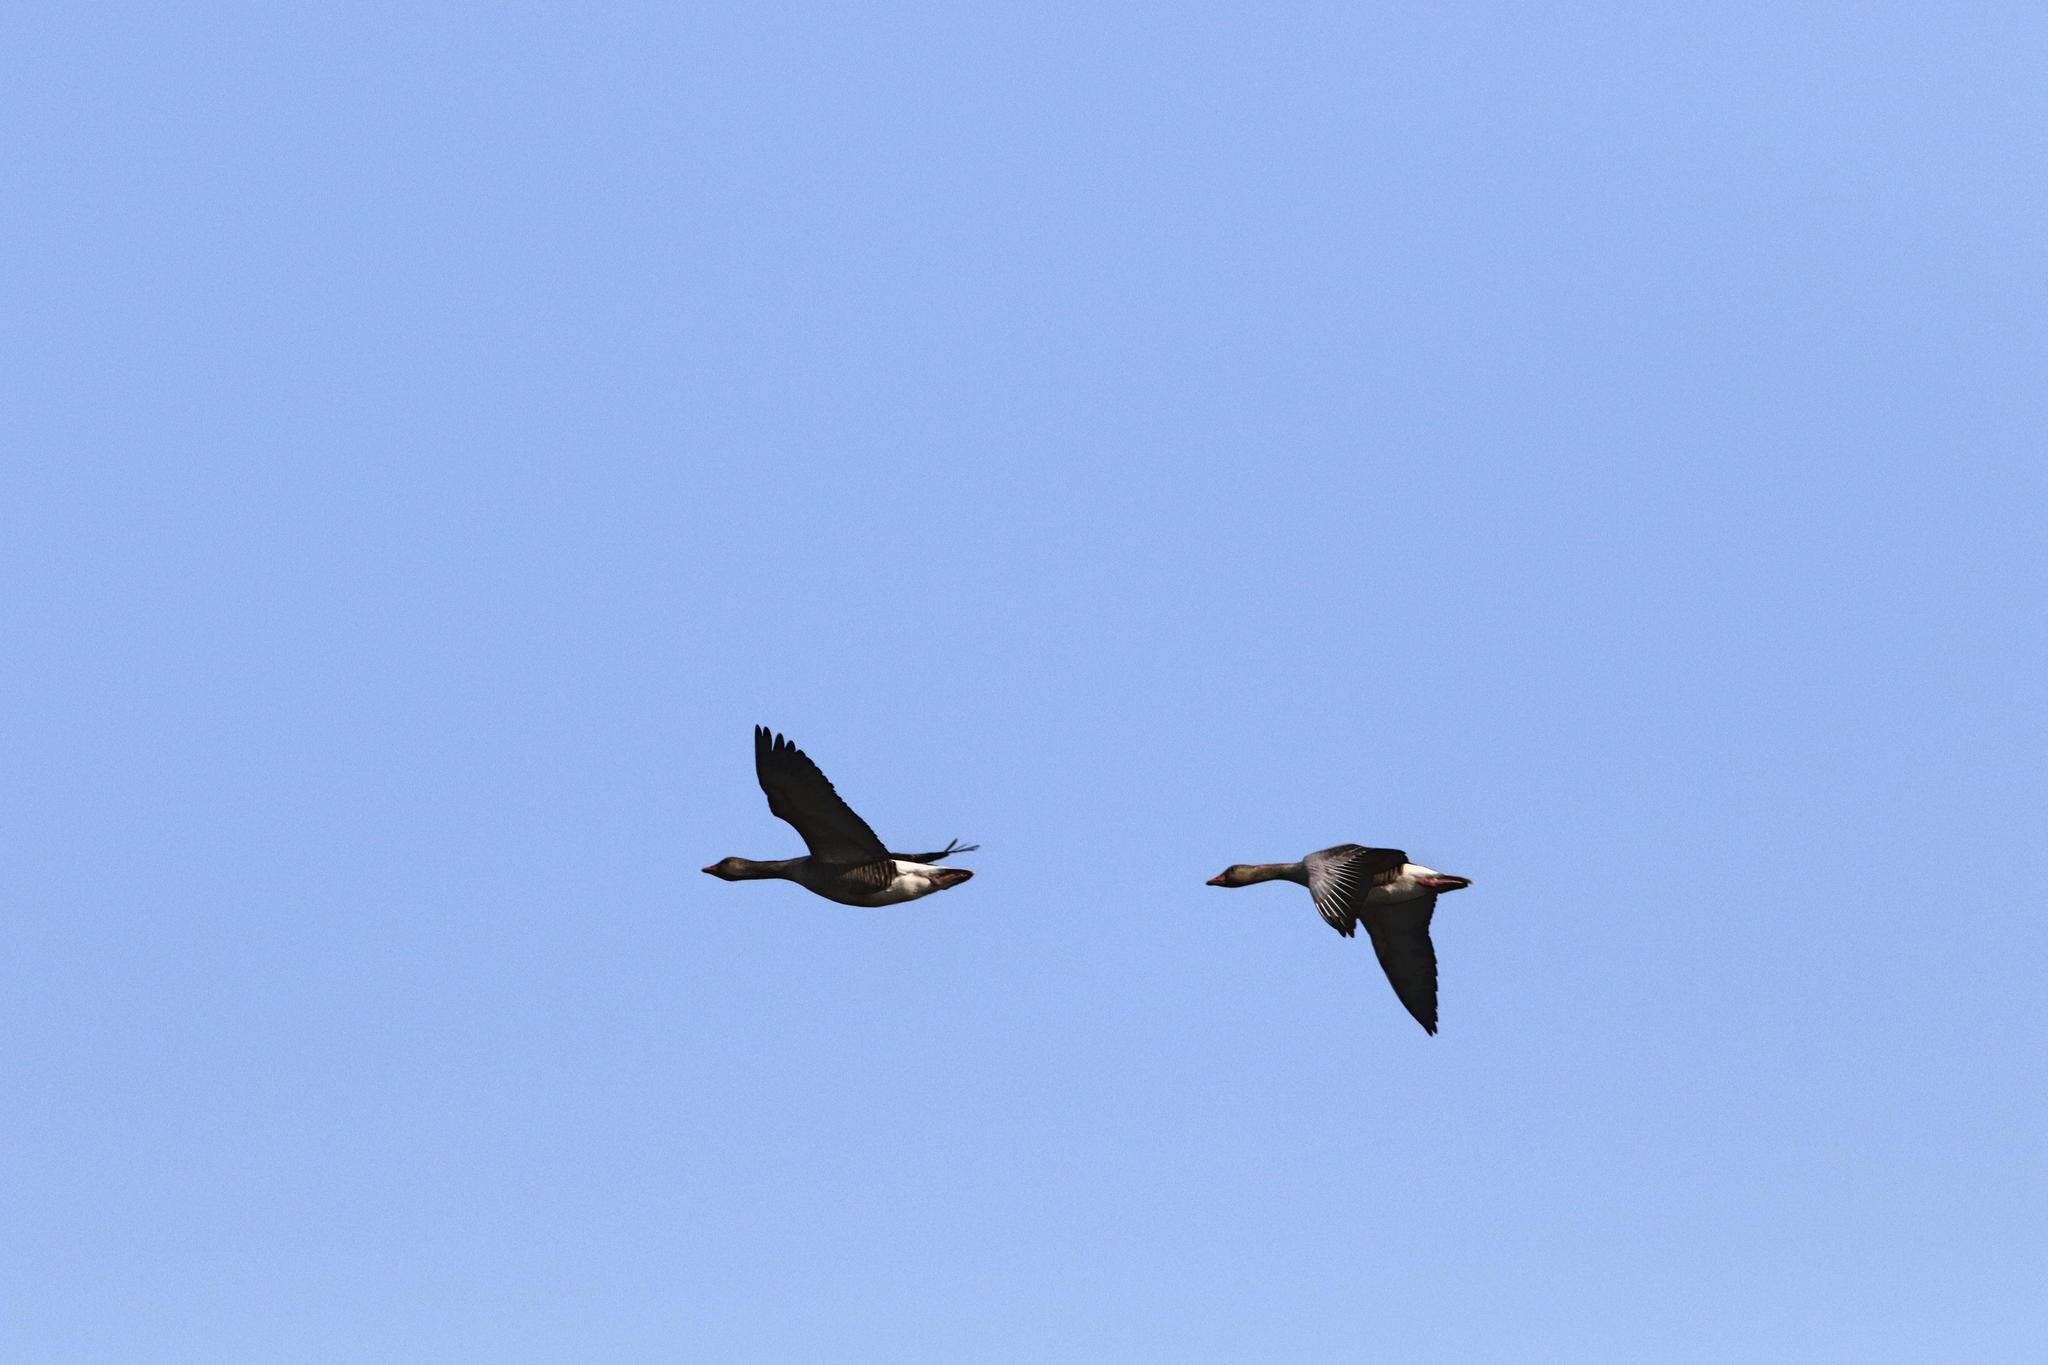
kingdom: Animalia
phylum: Chordata
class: Aves
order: Anseriformes
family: Anatidae
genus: Anser
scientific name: Anser brachyrhynchus
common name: Pink-footed goose
